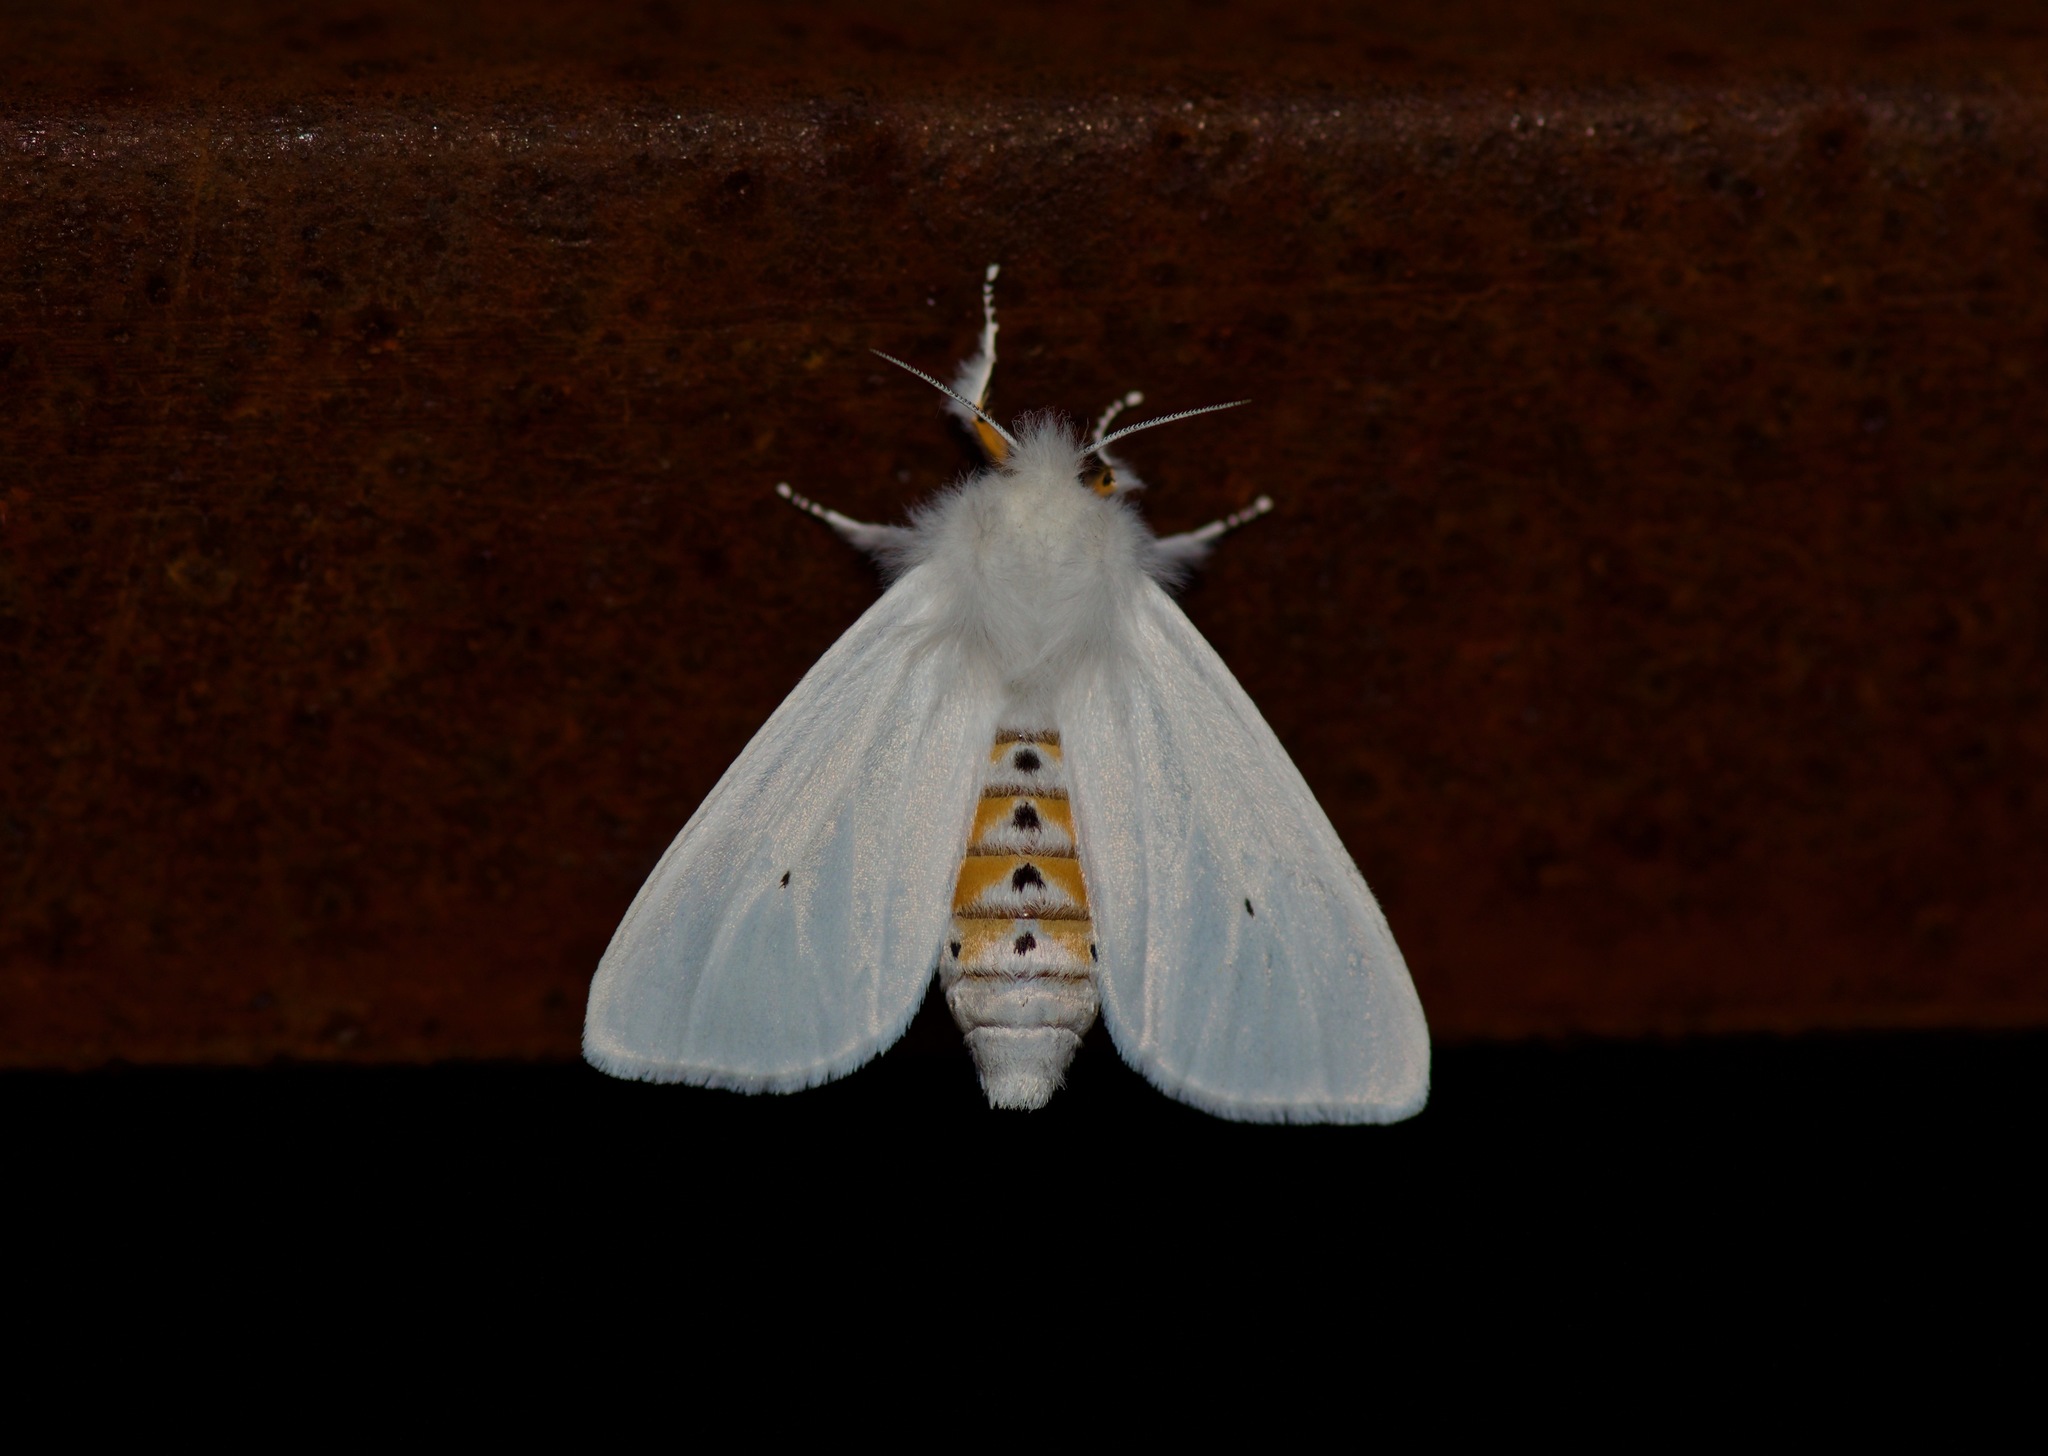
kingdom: Animalia
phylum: Arthropoda
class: Insecta
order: Lepidoptera
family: Erebidae
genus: Spilosoma
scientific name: Spilosoma virginica
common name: Virginia tiger moth
